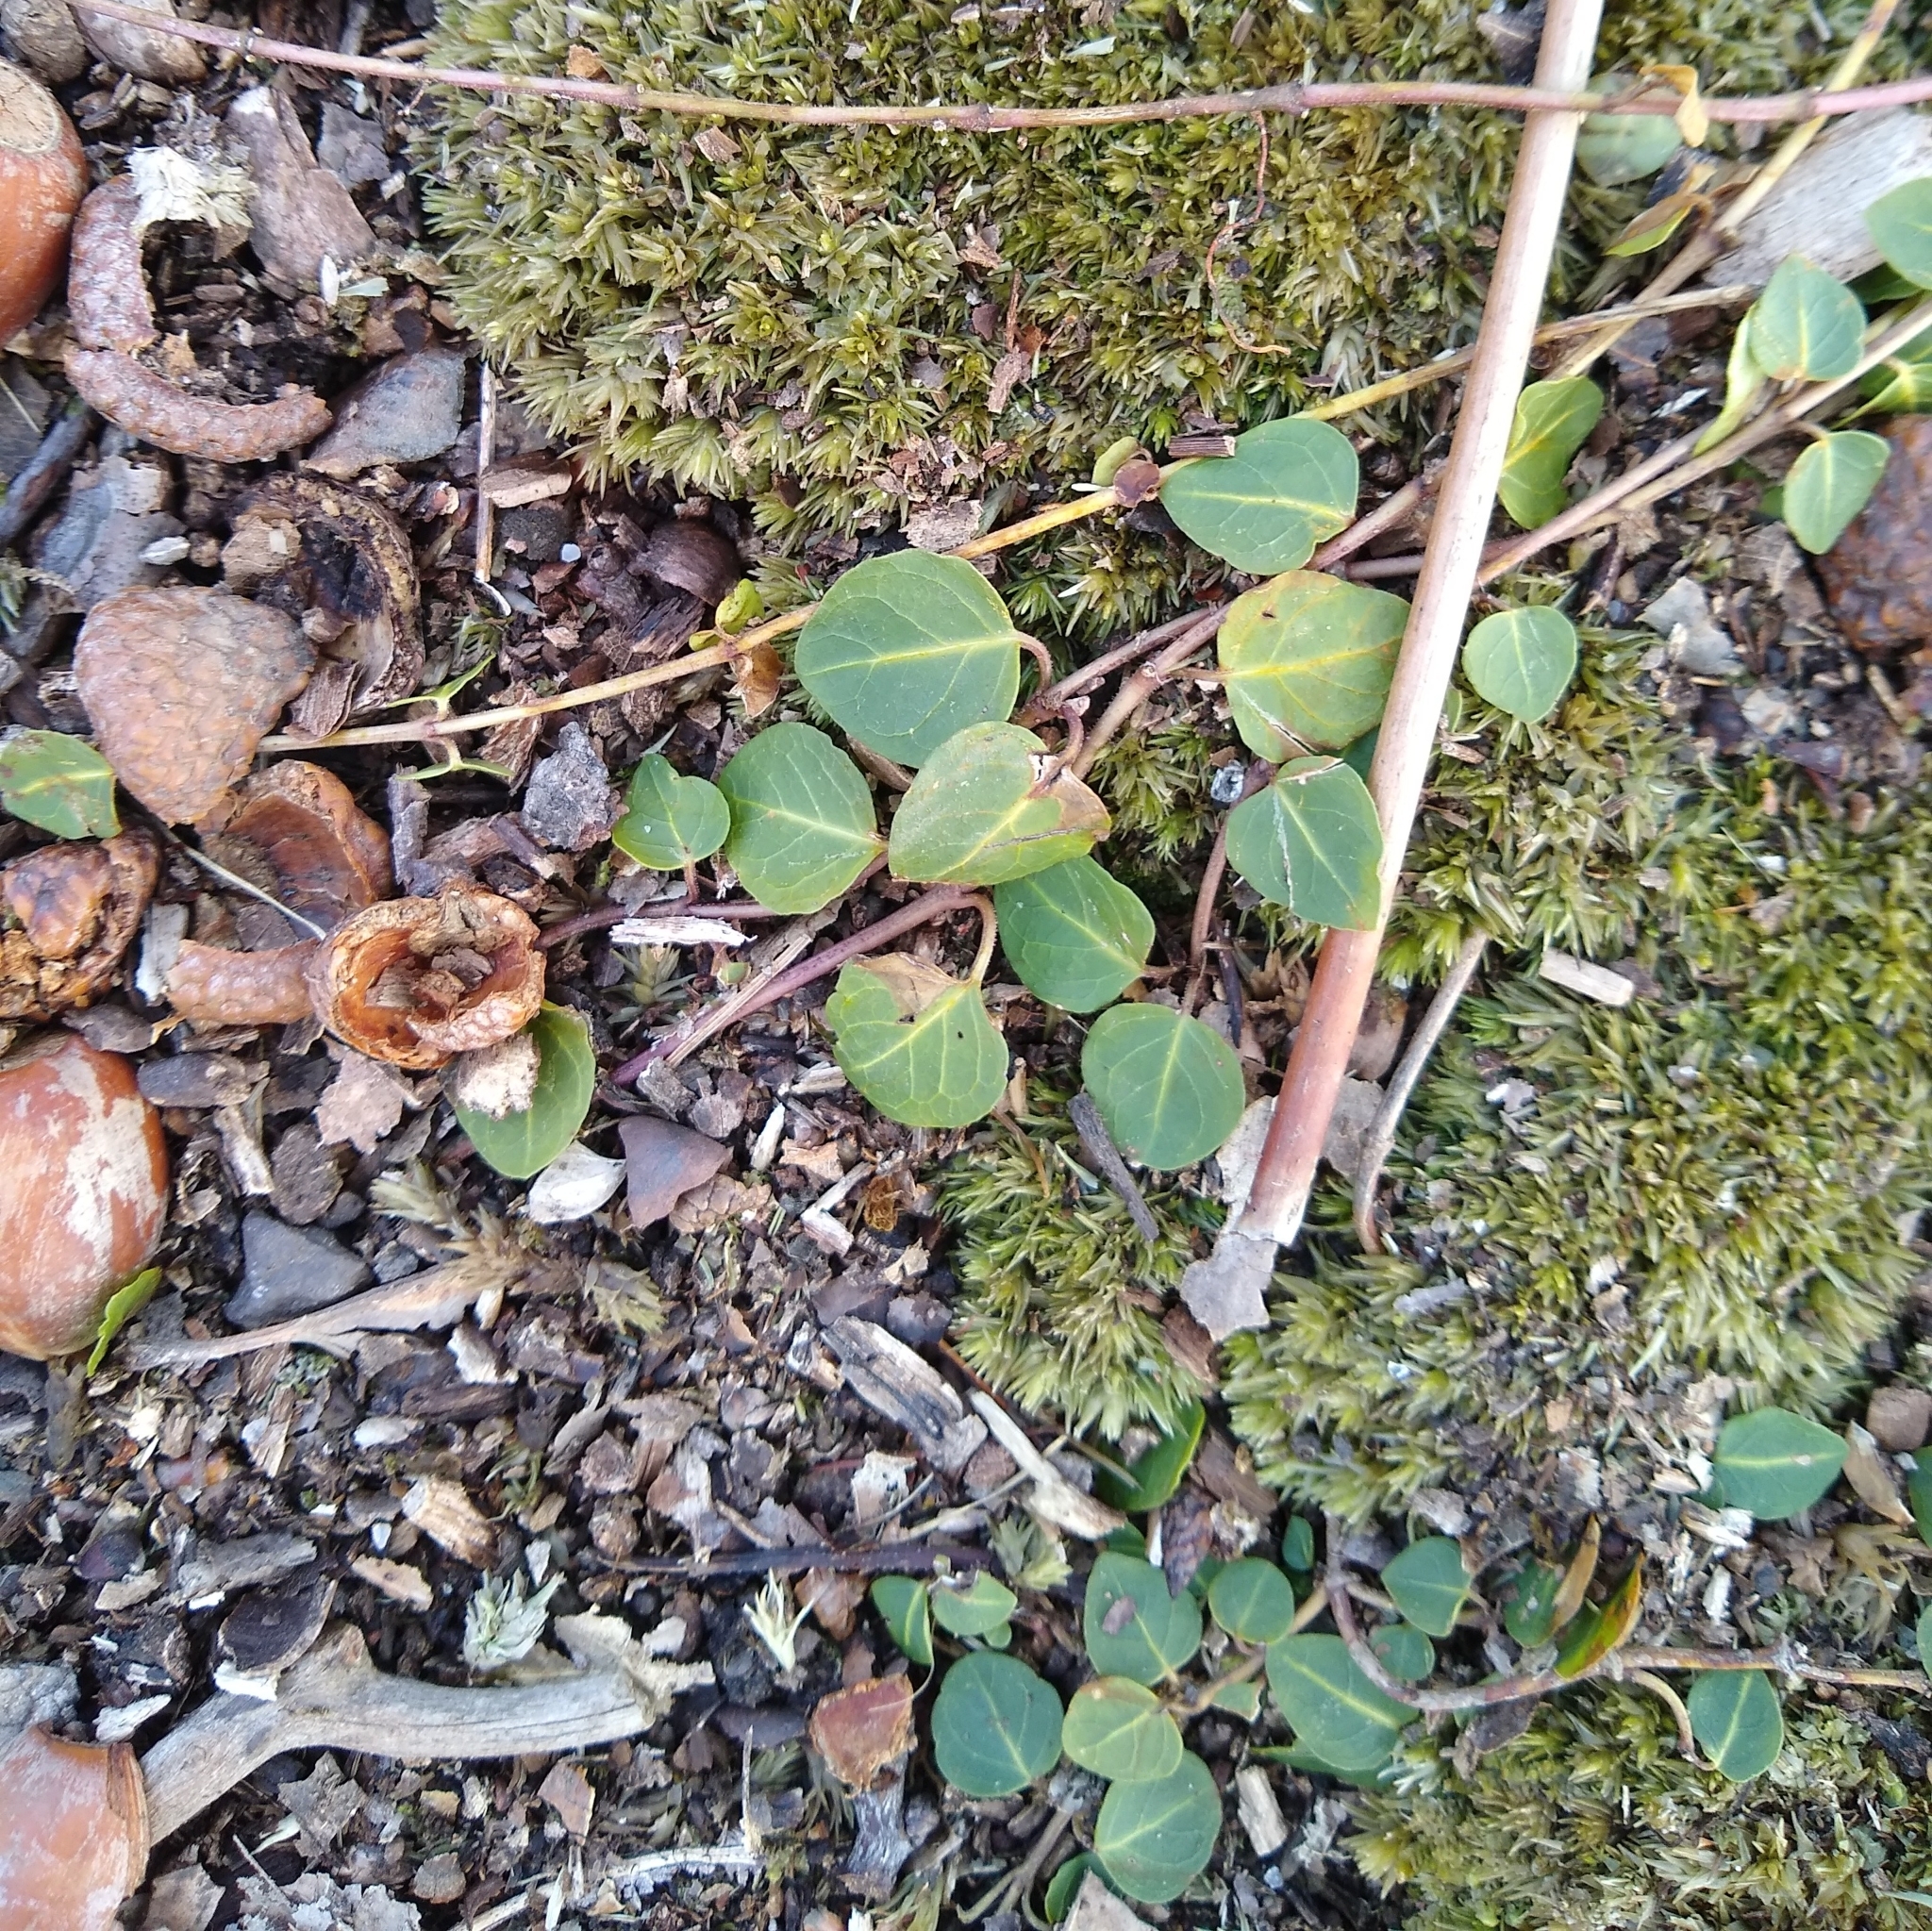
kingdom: Plantae
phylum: Tracheophyta
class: Magnoliopsida
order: Gentianales
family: Rubiaceae
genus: Mitchella
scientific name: Mitchella repens
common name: Partridge-berry
